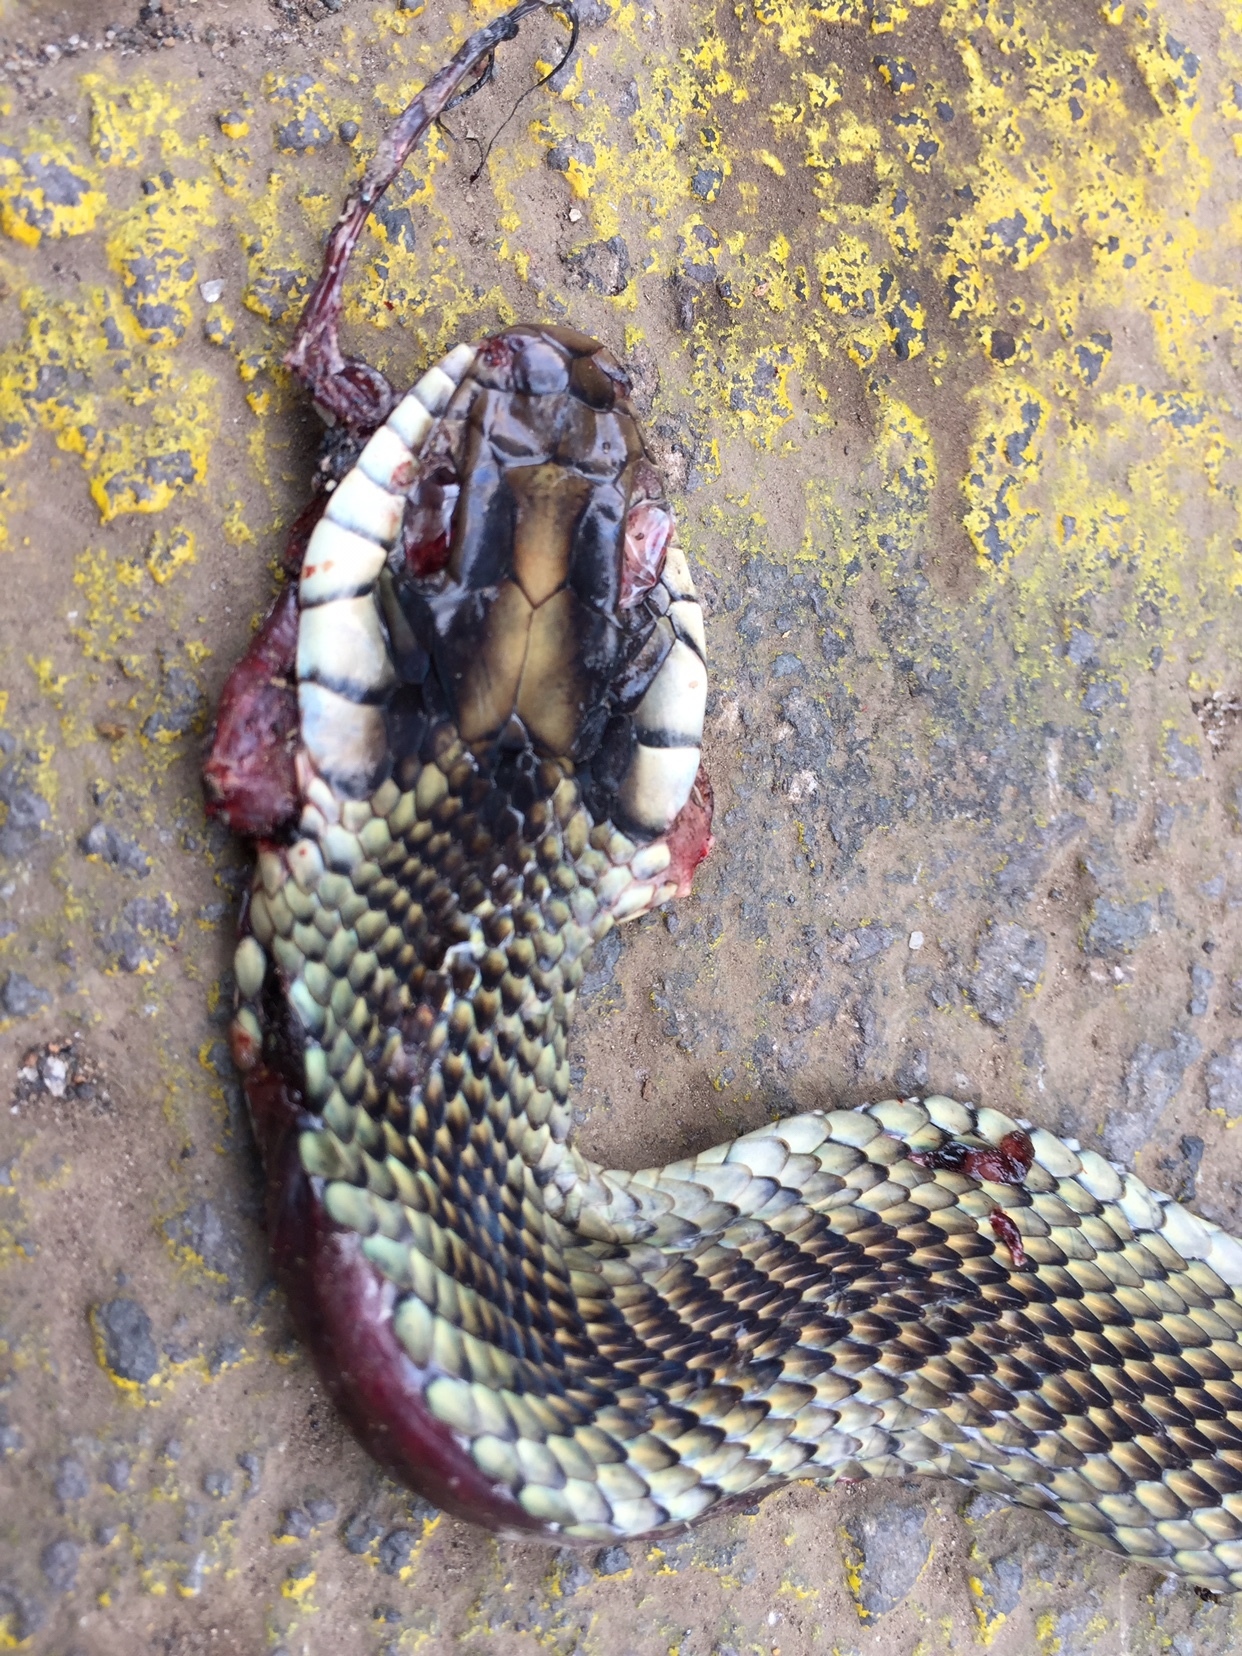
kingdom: Animalia
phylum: Chordata
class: Squamata
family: Colubridae
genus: Drymobius
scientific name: Drymobius margaritiferus
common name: Central american speckled racer
